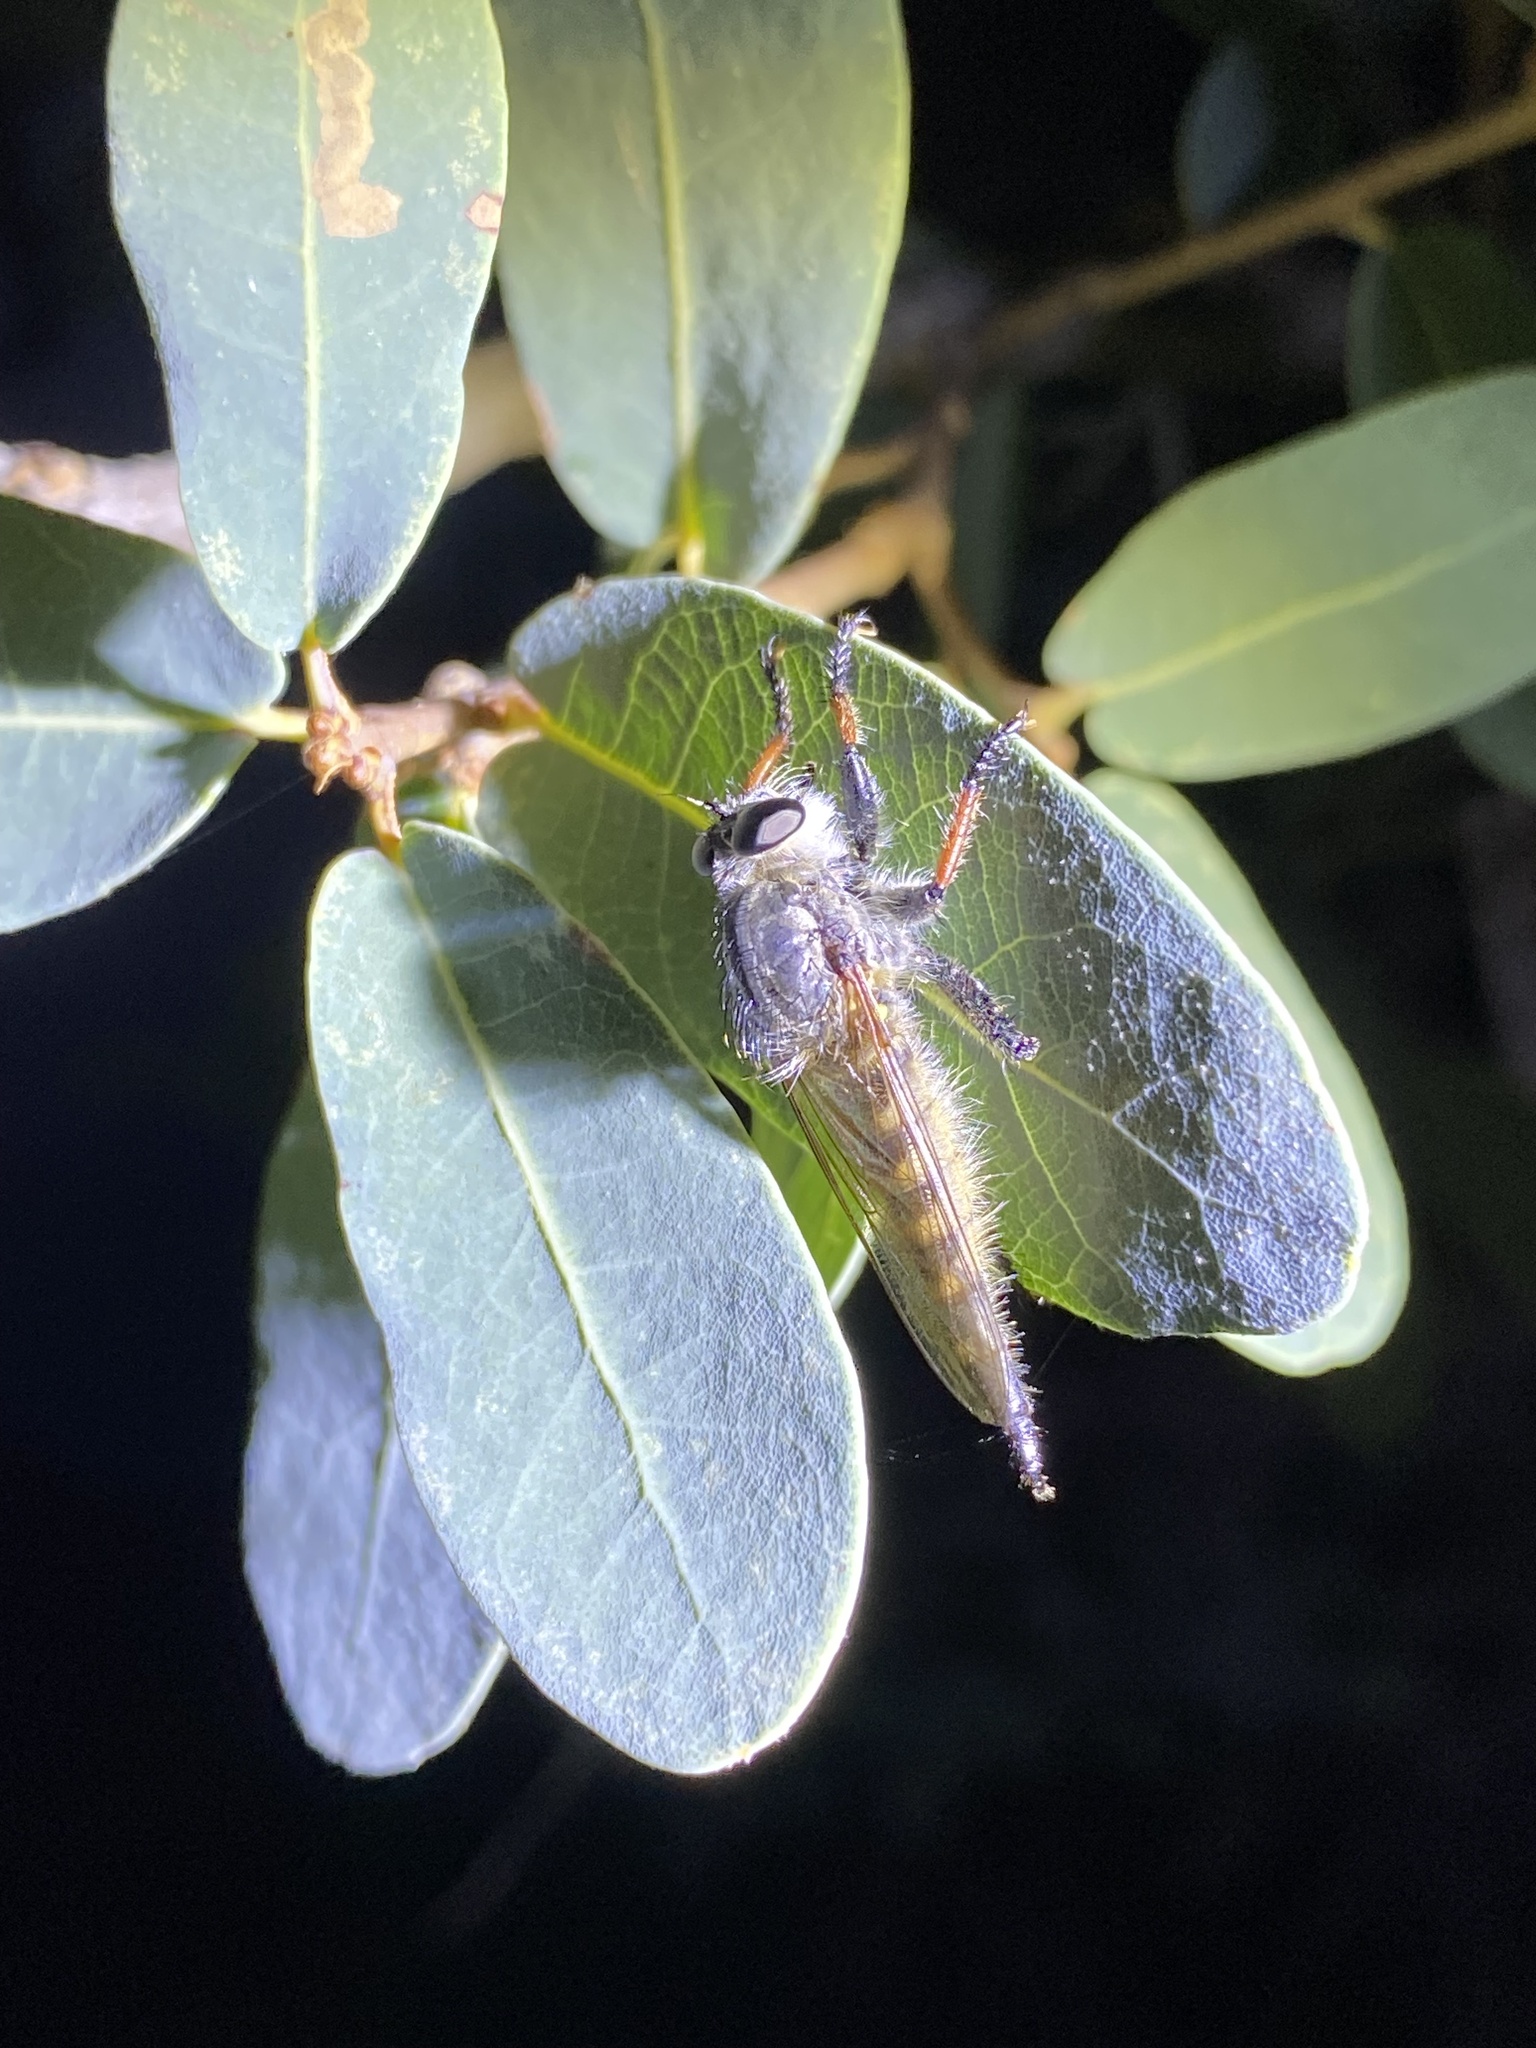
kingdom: Animalia
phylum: Arthropoda
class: Insecta
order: Diptera
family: Asilidae
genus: Promachus
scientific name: Promachus sackeni
